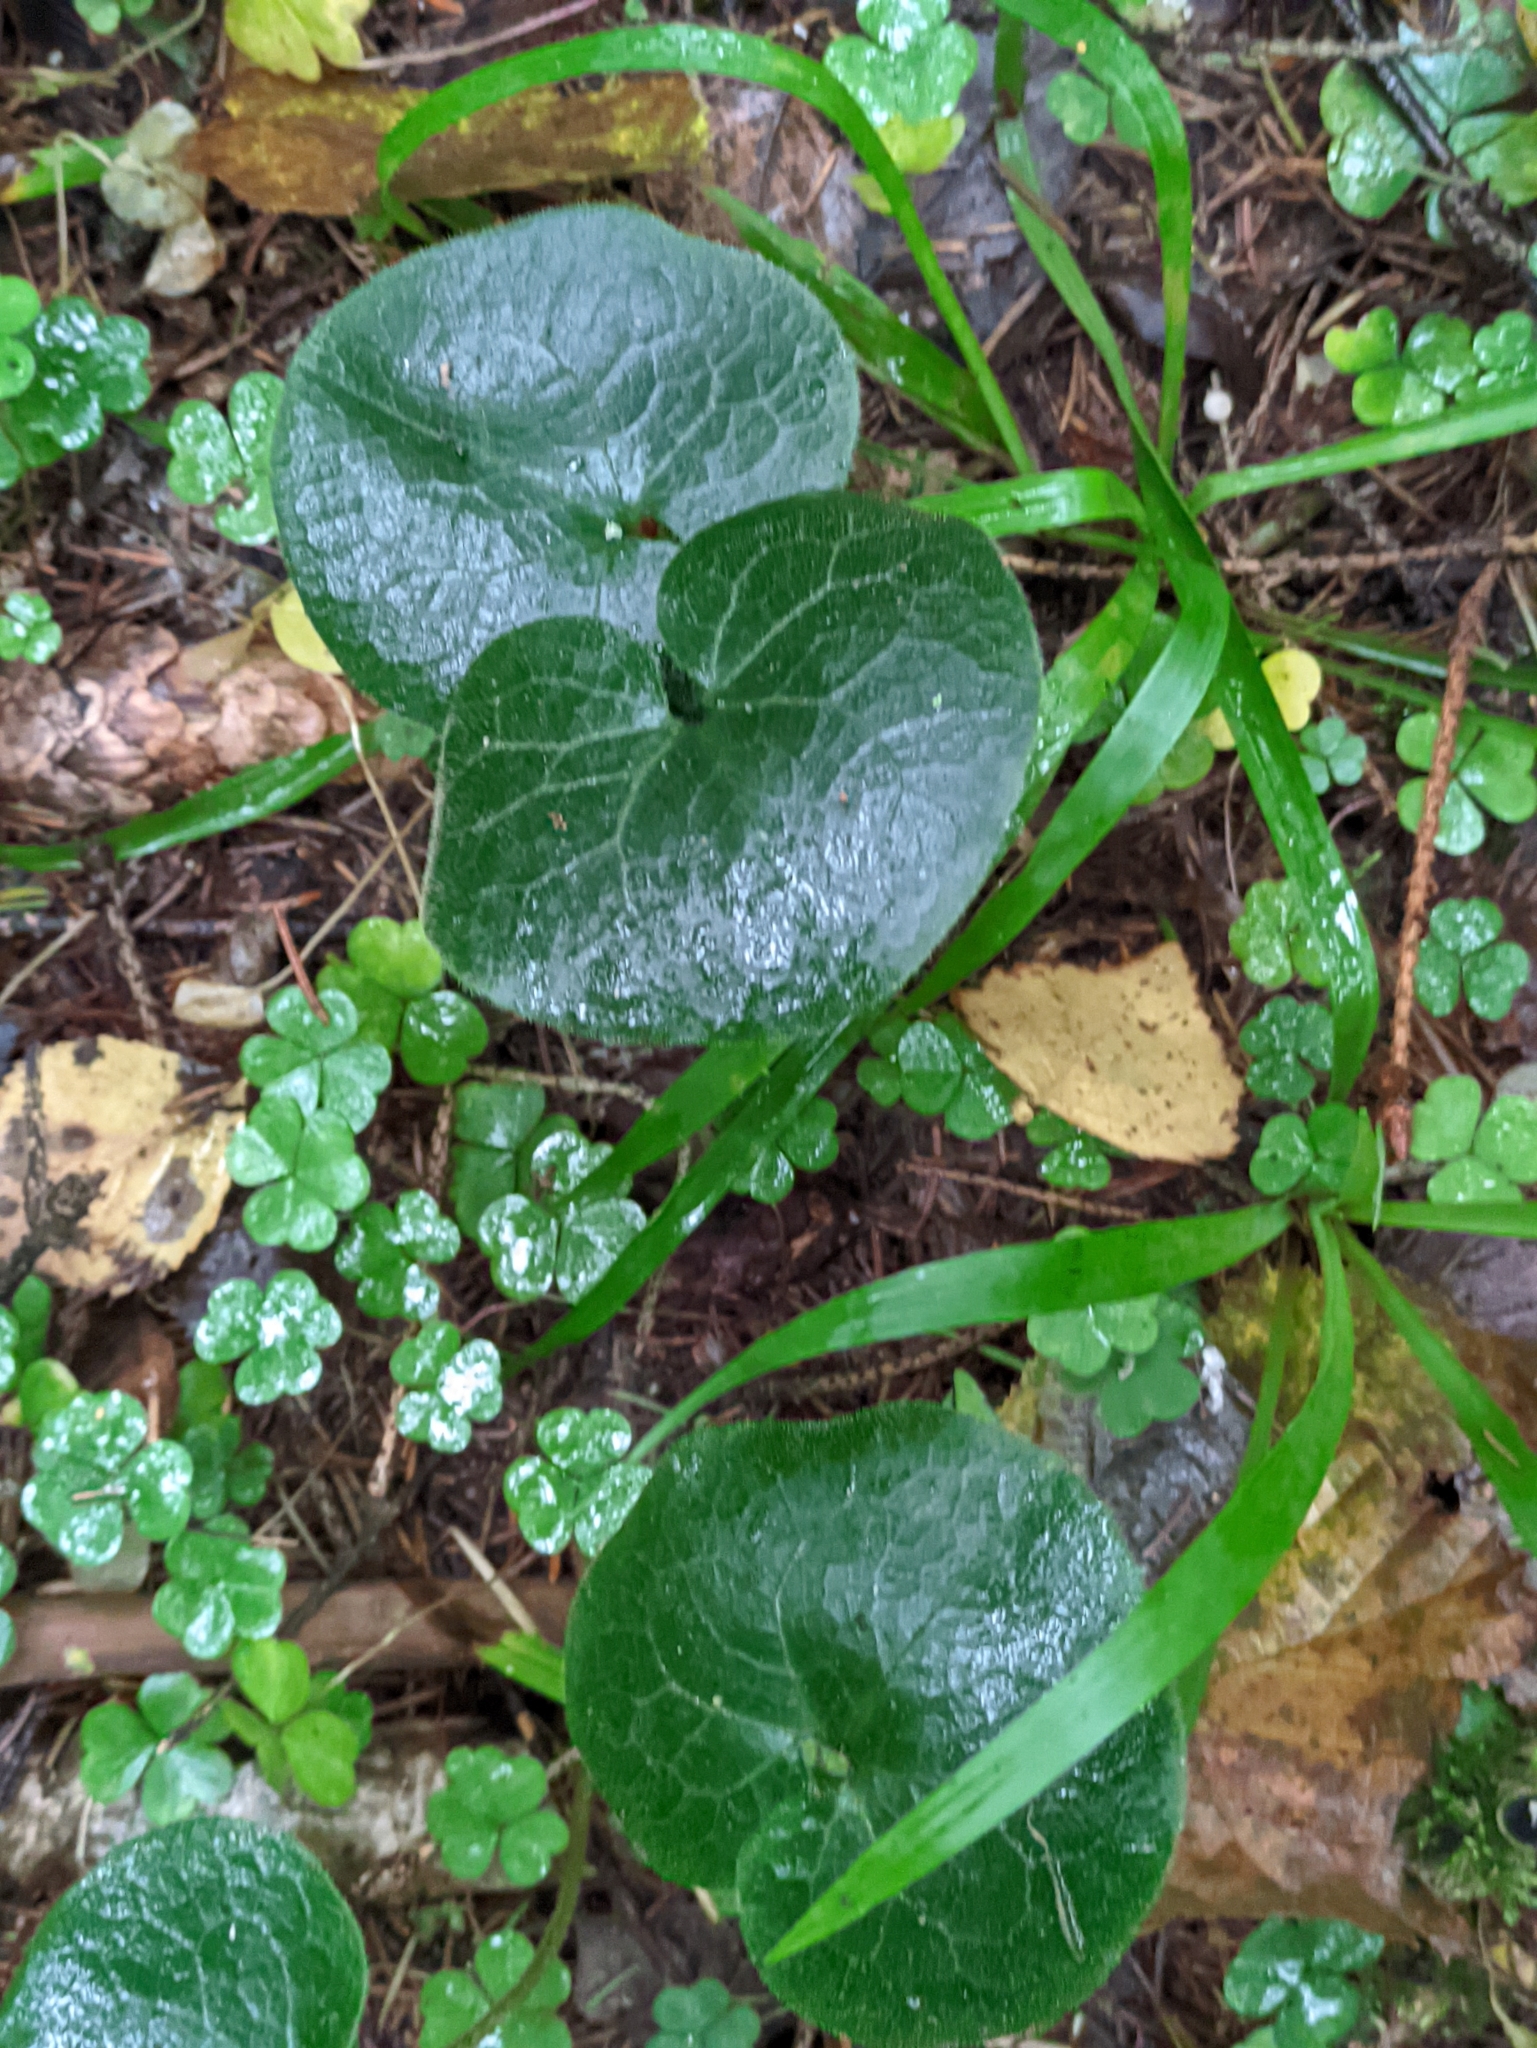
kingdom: Plantae
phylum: Tracheophyta
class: Magnoliopsida
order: Piperales
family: Aristolochiaceae
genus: Asarum
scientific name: Asarum europaeum
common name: Asarabacca
